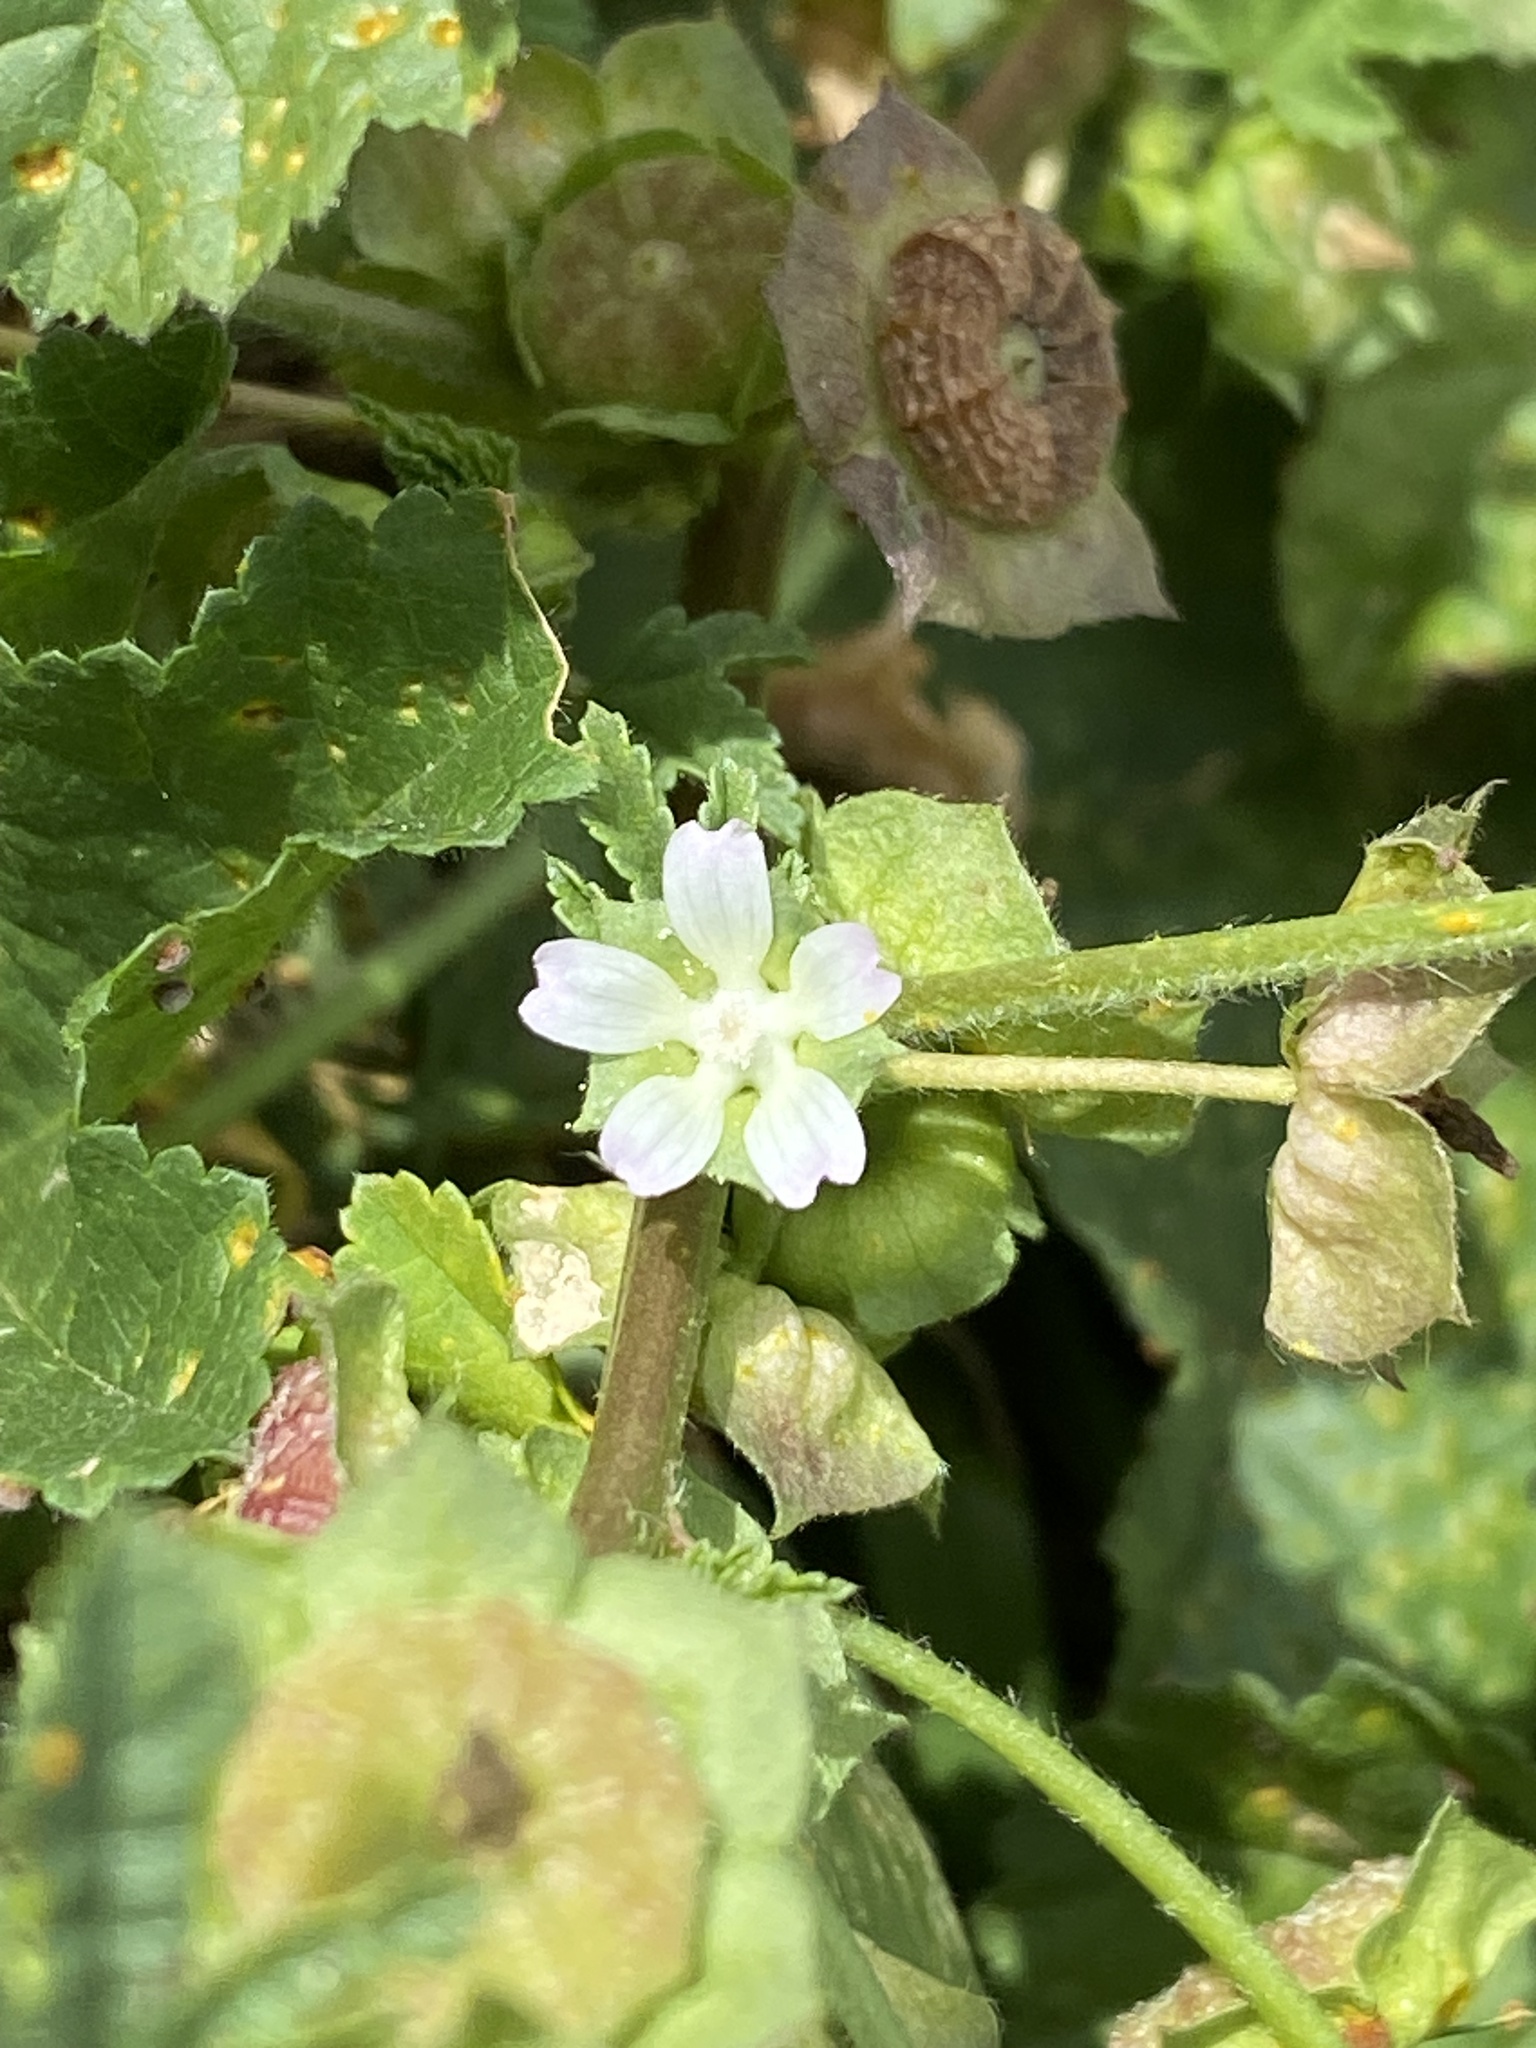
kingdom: Plantae
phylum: Tracheophyta
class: Magnoliopsida
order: Malvales
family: Malvaceae
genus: Malva
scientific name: Malva parviflora
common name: Least mallow
